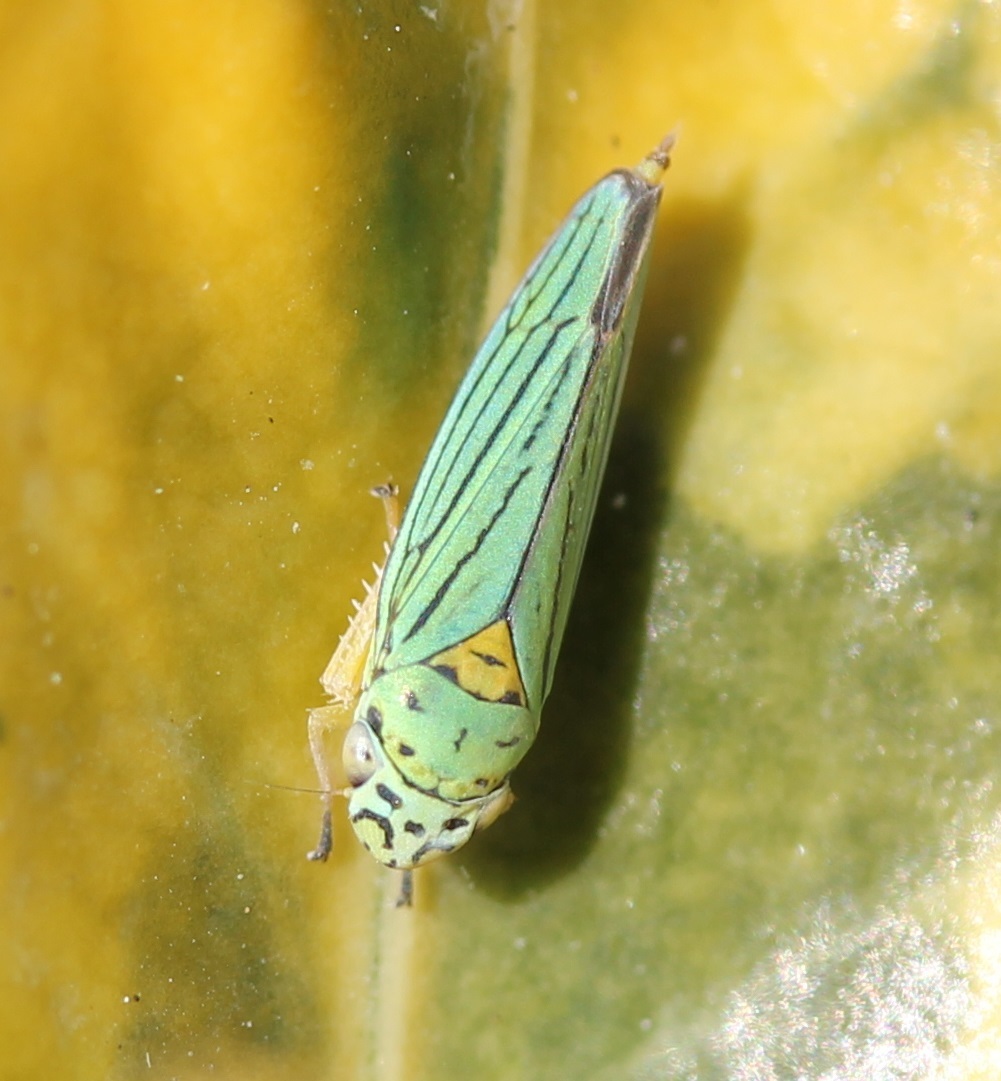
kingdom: Animalia
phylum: Arthropoda
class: Insecta
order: Hemiptera
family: Cicadellidae
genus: Graphocephala
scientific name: Graphocephala atropunctata
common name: Blue-green sharpshooter
